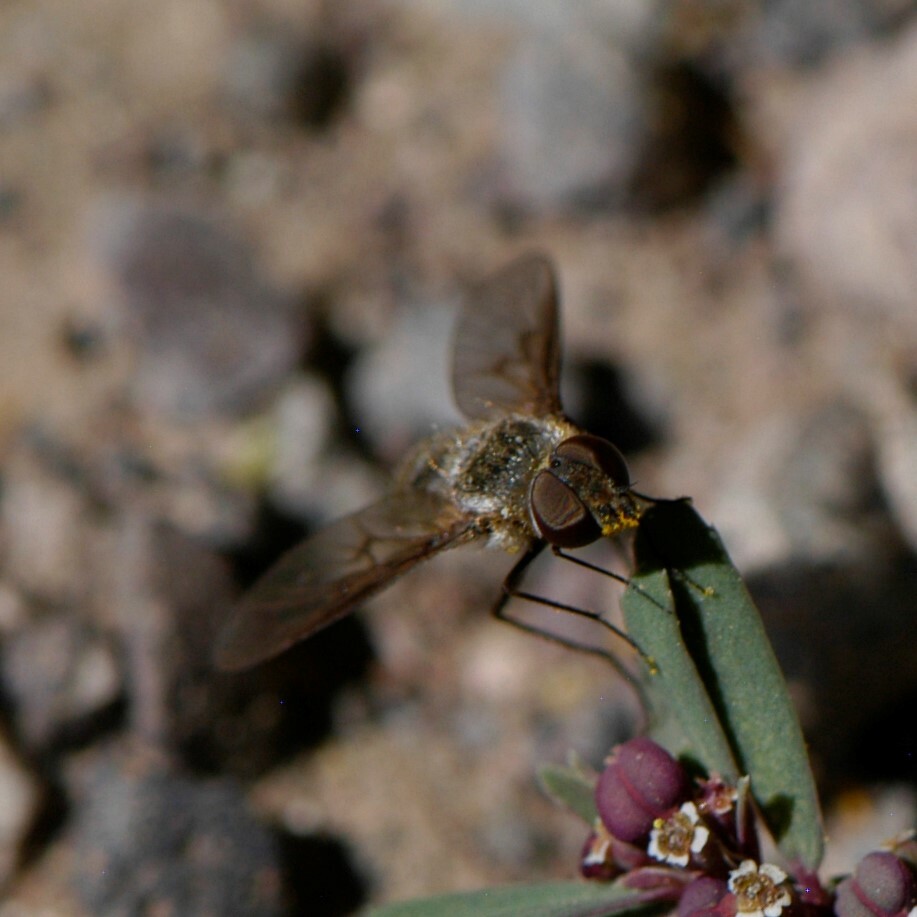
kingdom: Animalia
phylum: Arthropoda
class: Insecta
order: Diptera
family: Bombyliidae
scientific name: Bombyliidae
